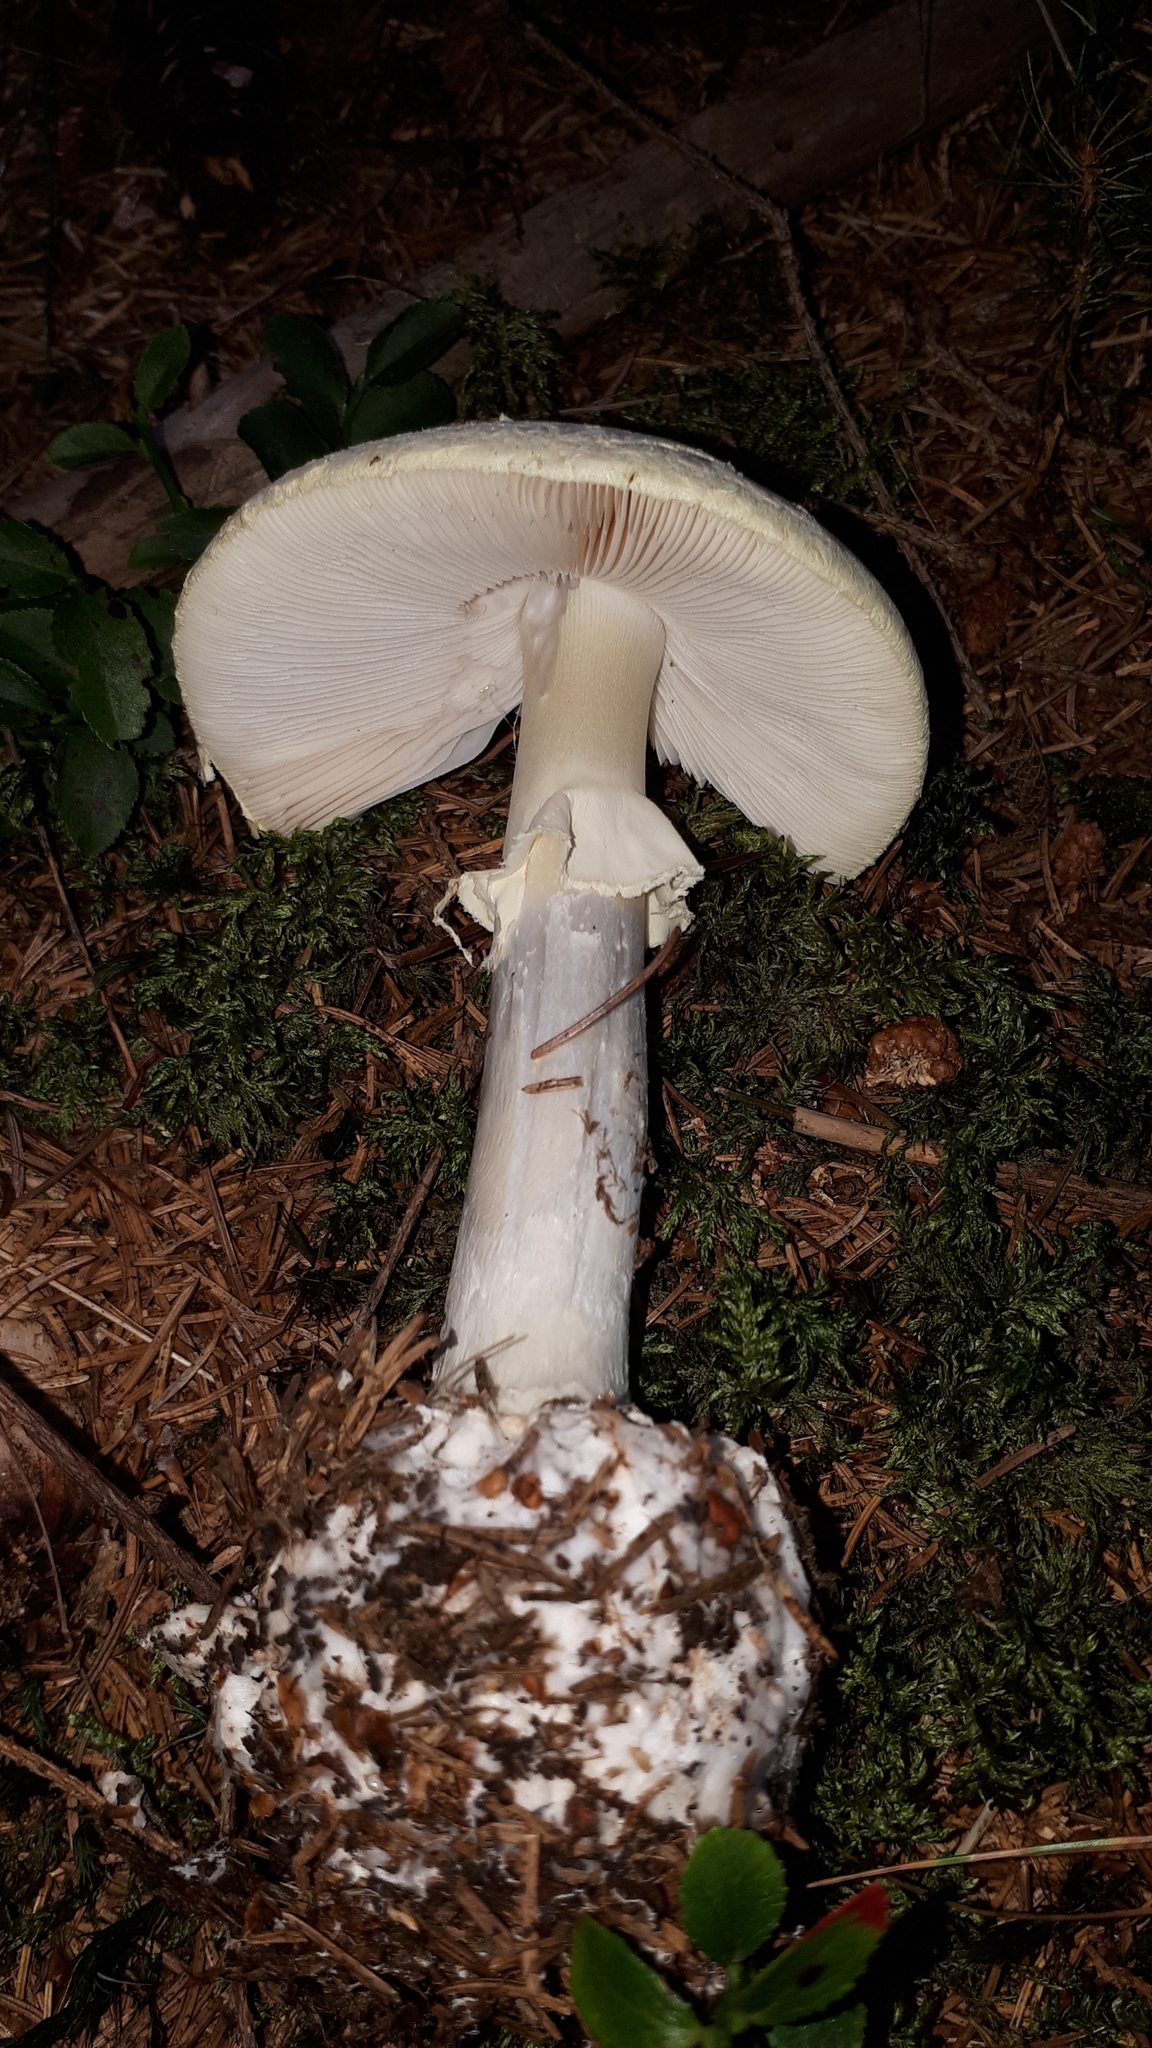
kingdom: Fungi
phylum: Basidiomycota
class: Agaricomycetes
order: Agaricales
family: Amanitaceae
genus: Amanita
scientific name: Amanita citrina
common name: False death-cap
